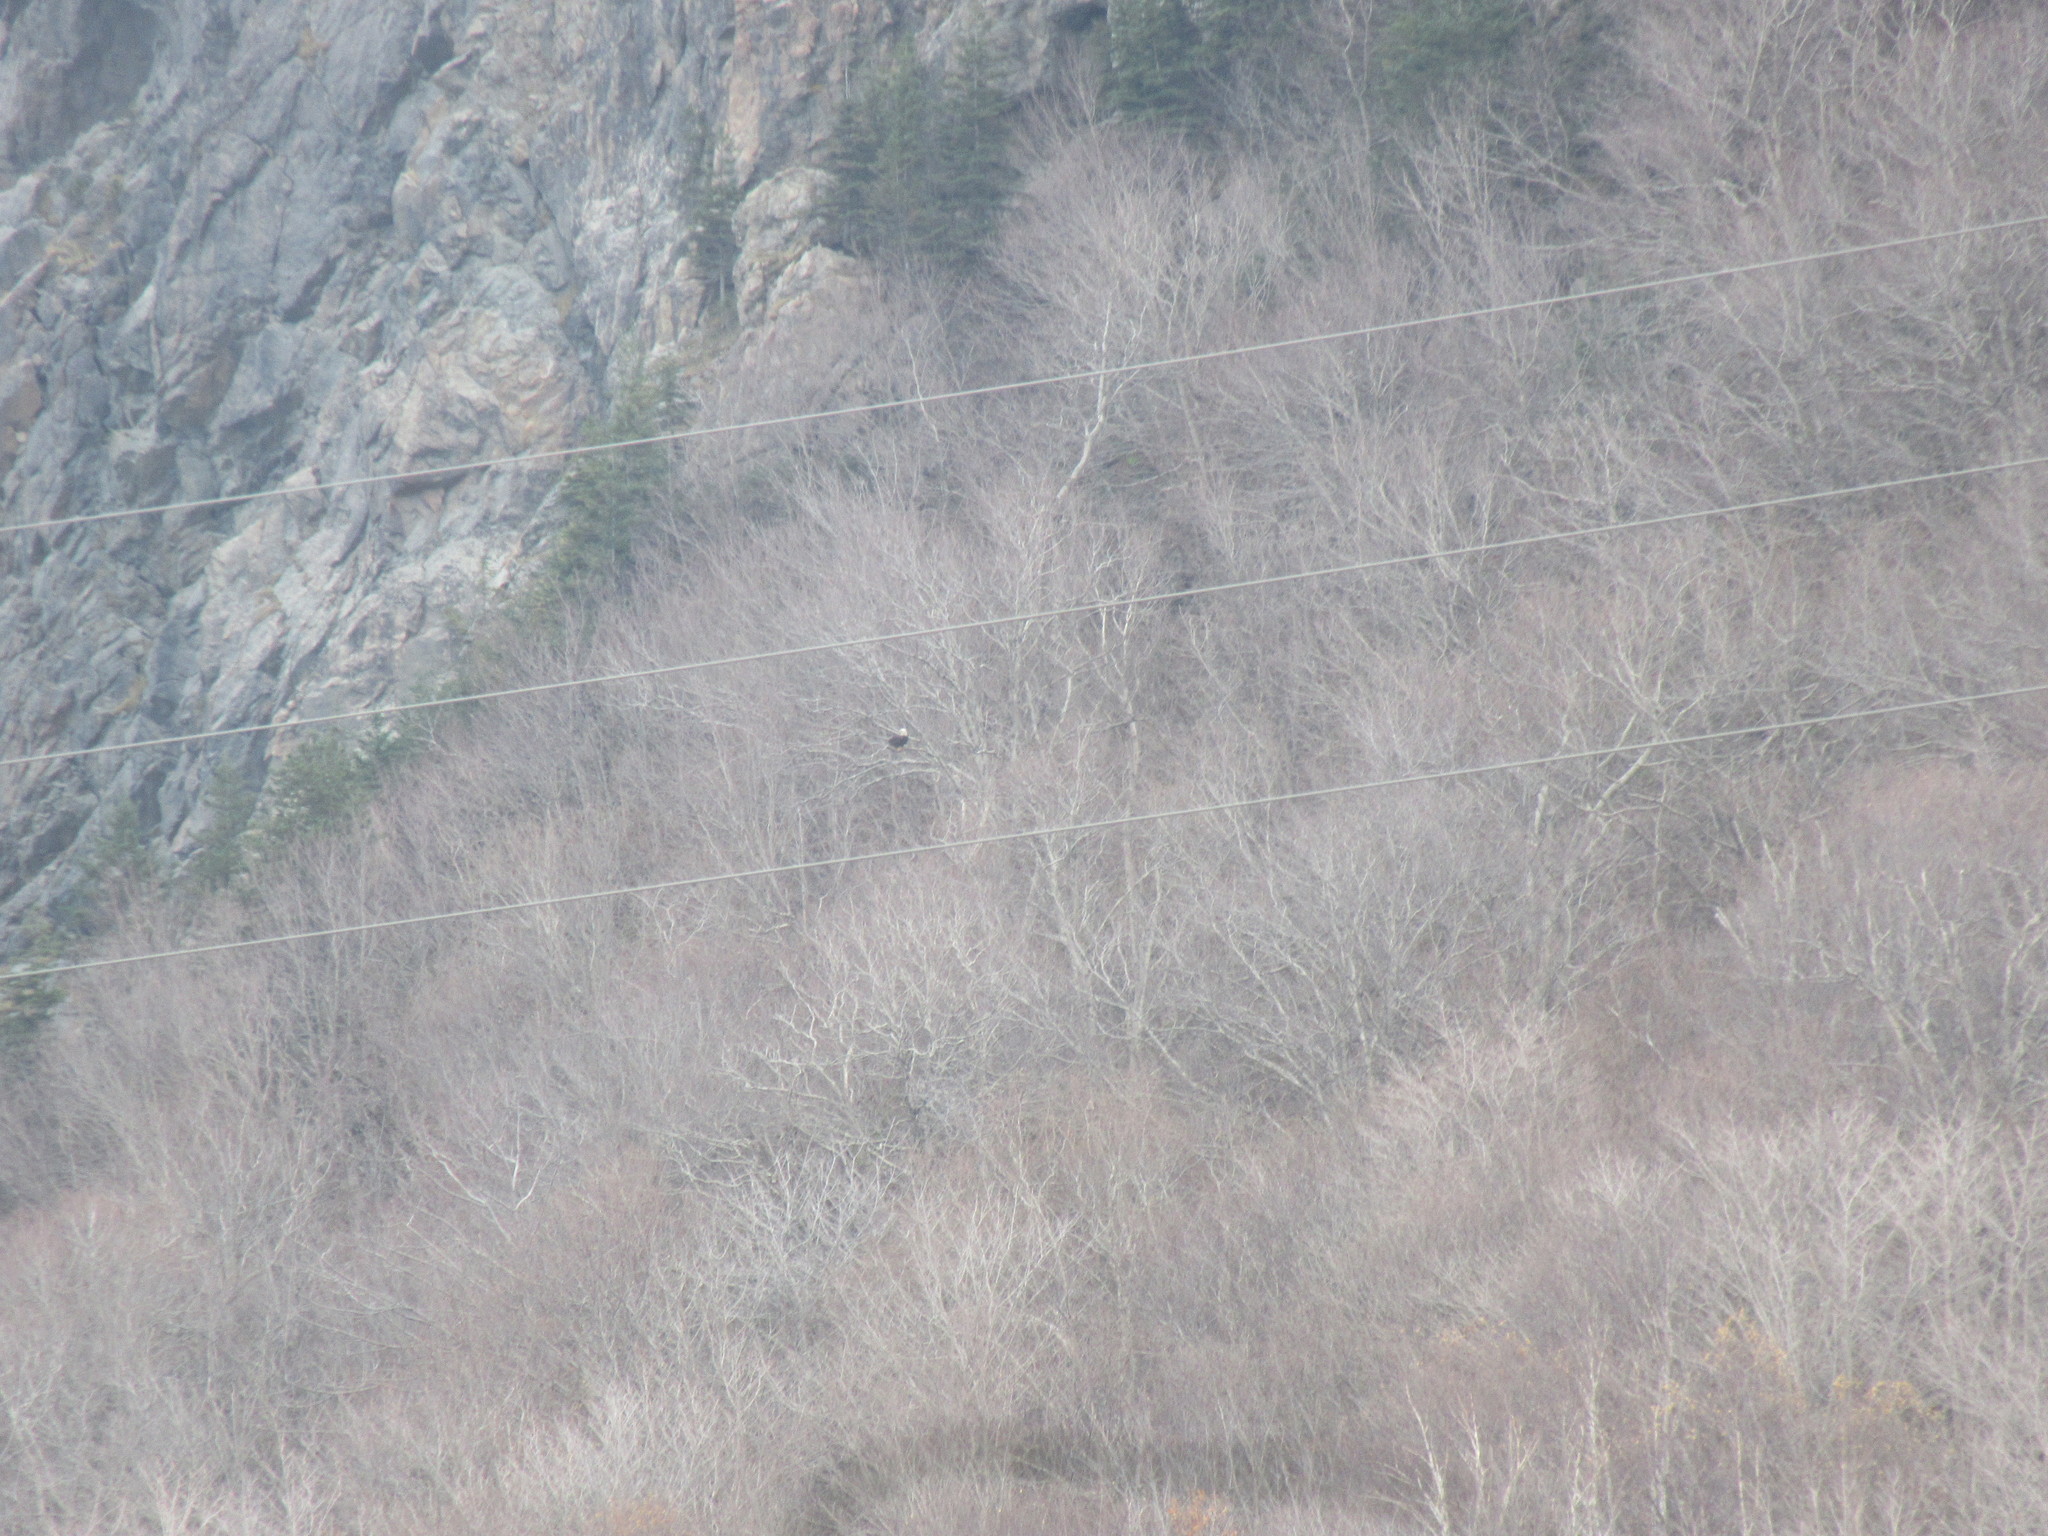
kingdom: Animalia
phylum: Chordata
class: Aves
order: Accipitriformes
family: Accipitridae
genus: Haliaeetus
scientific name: Haliaeetus leucocephalus
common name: Bald eagle
